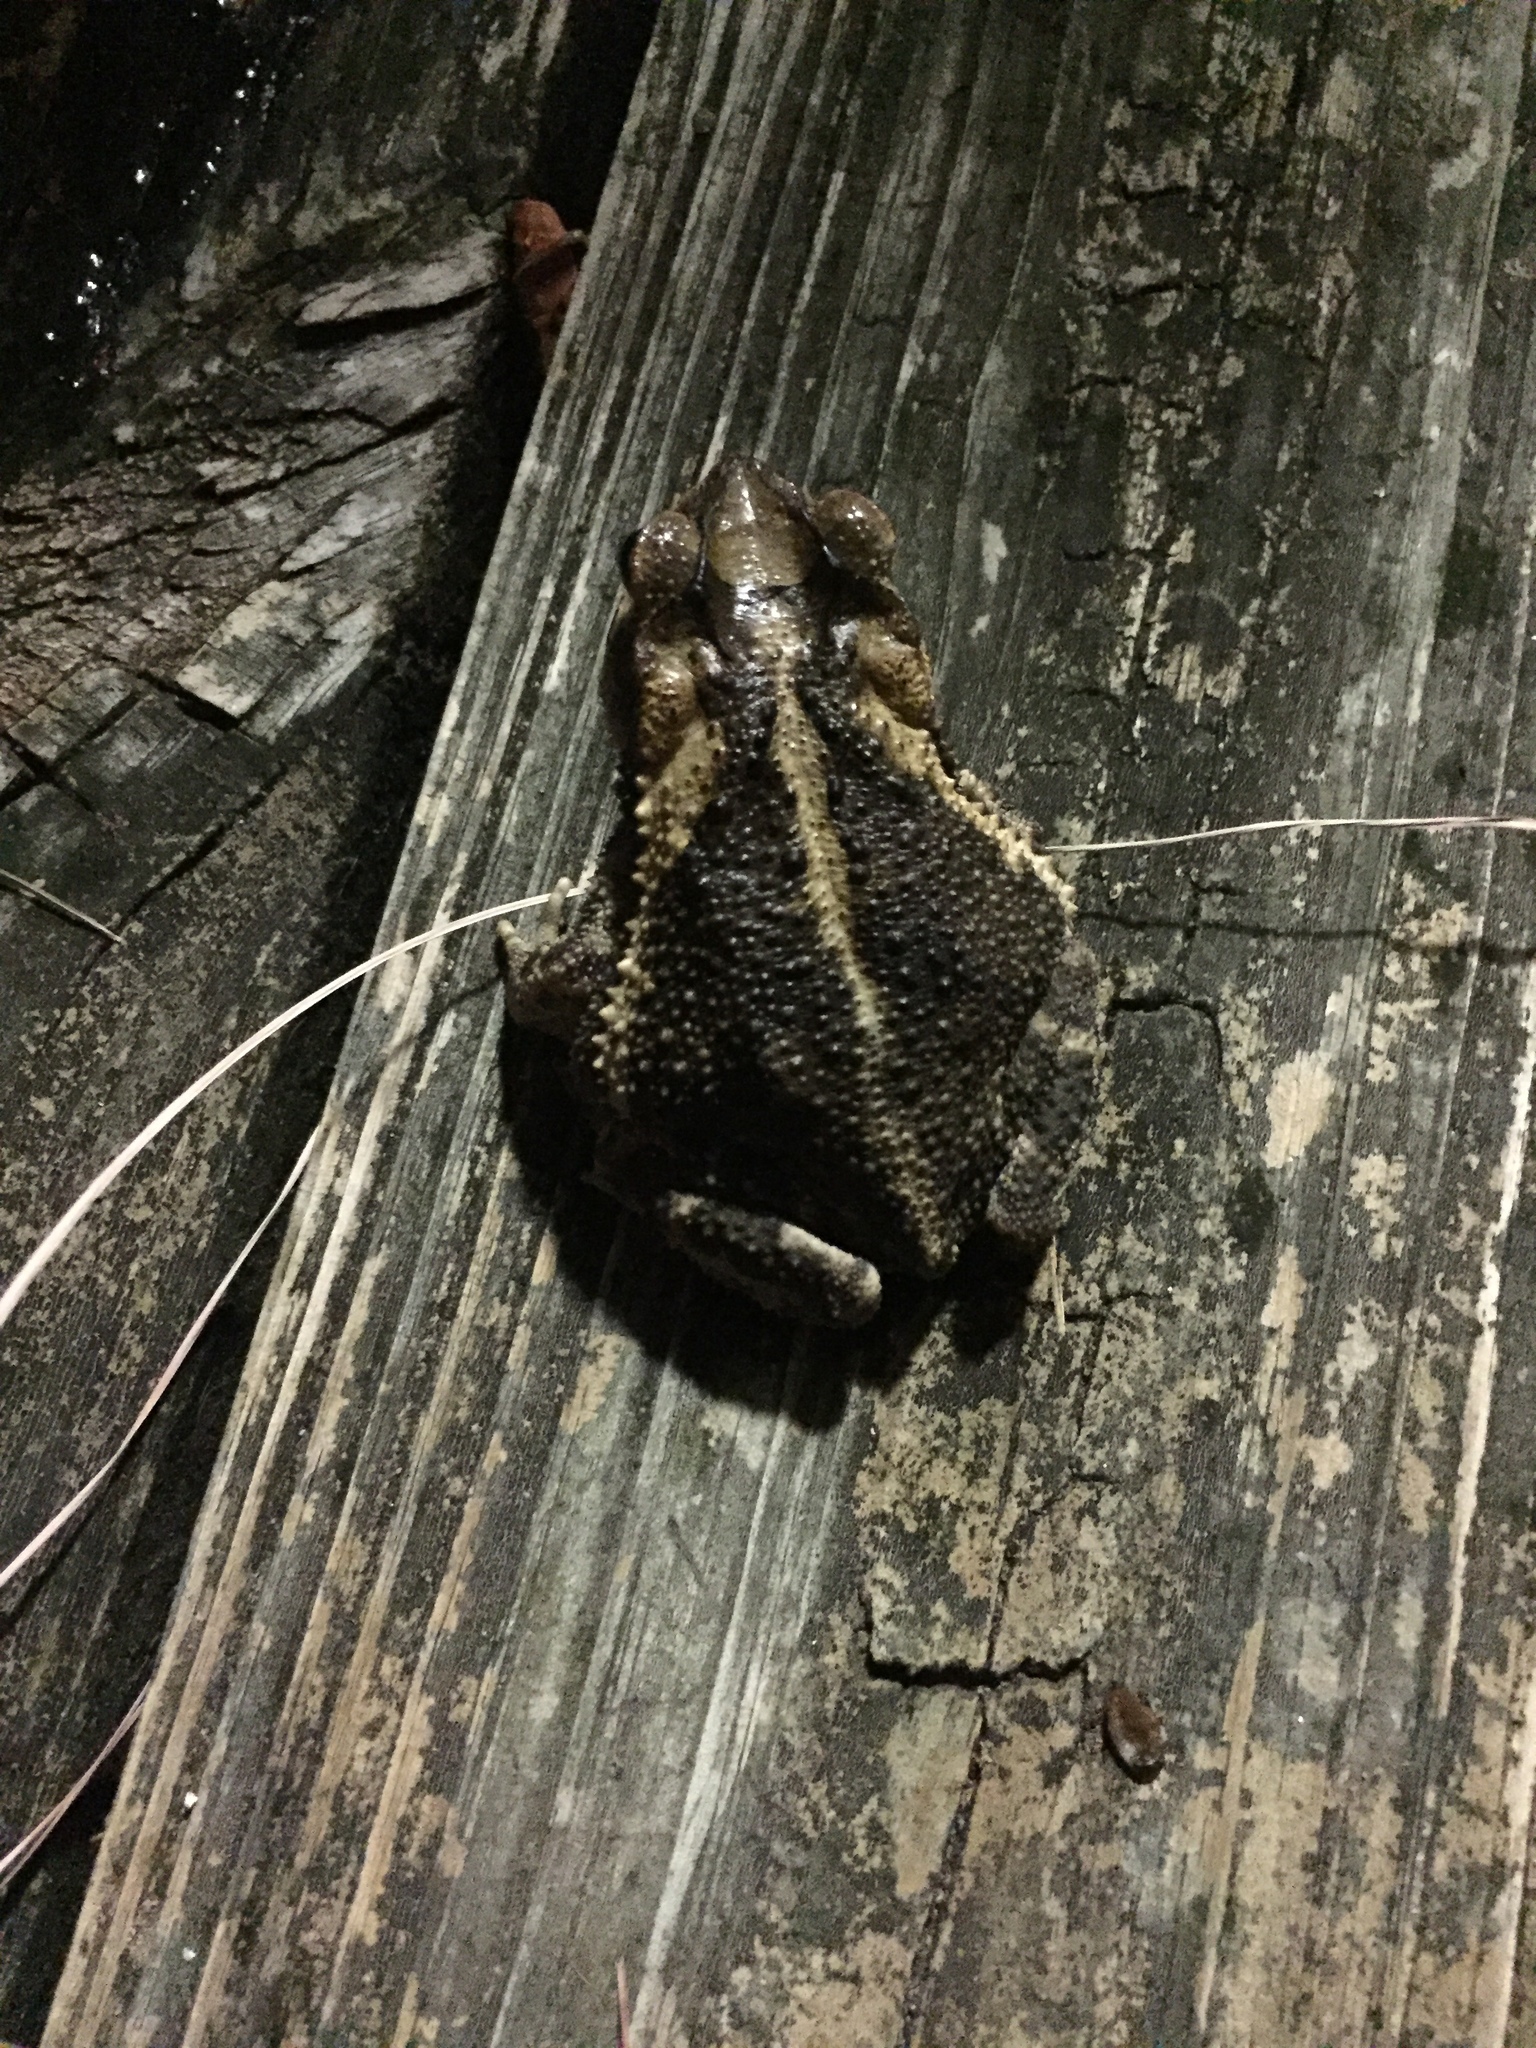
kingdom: Animalia
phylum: Chordata
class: Amphibia
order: Anura
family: Bufonidae
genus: Incilius
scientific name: Incilius nebulifer
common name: Gulf coast toad
